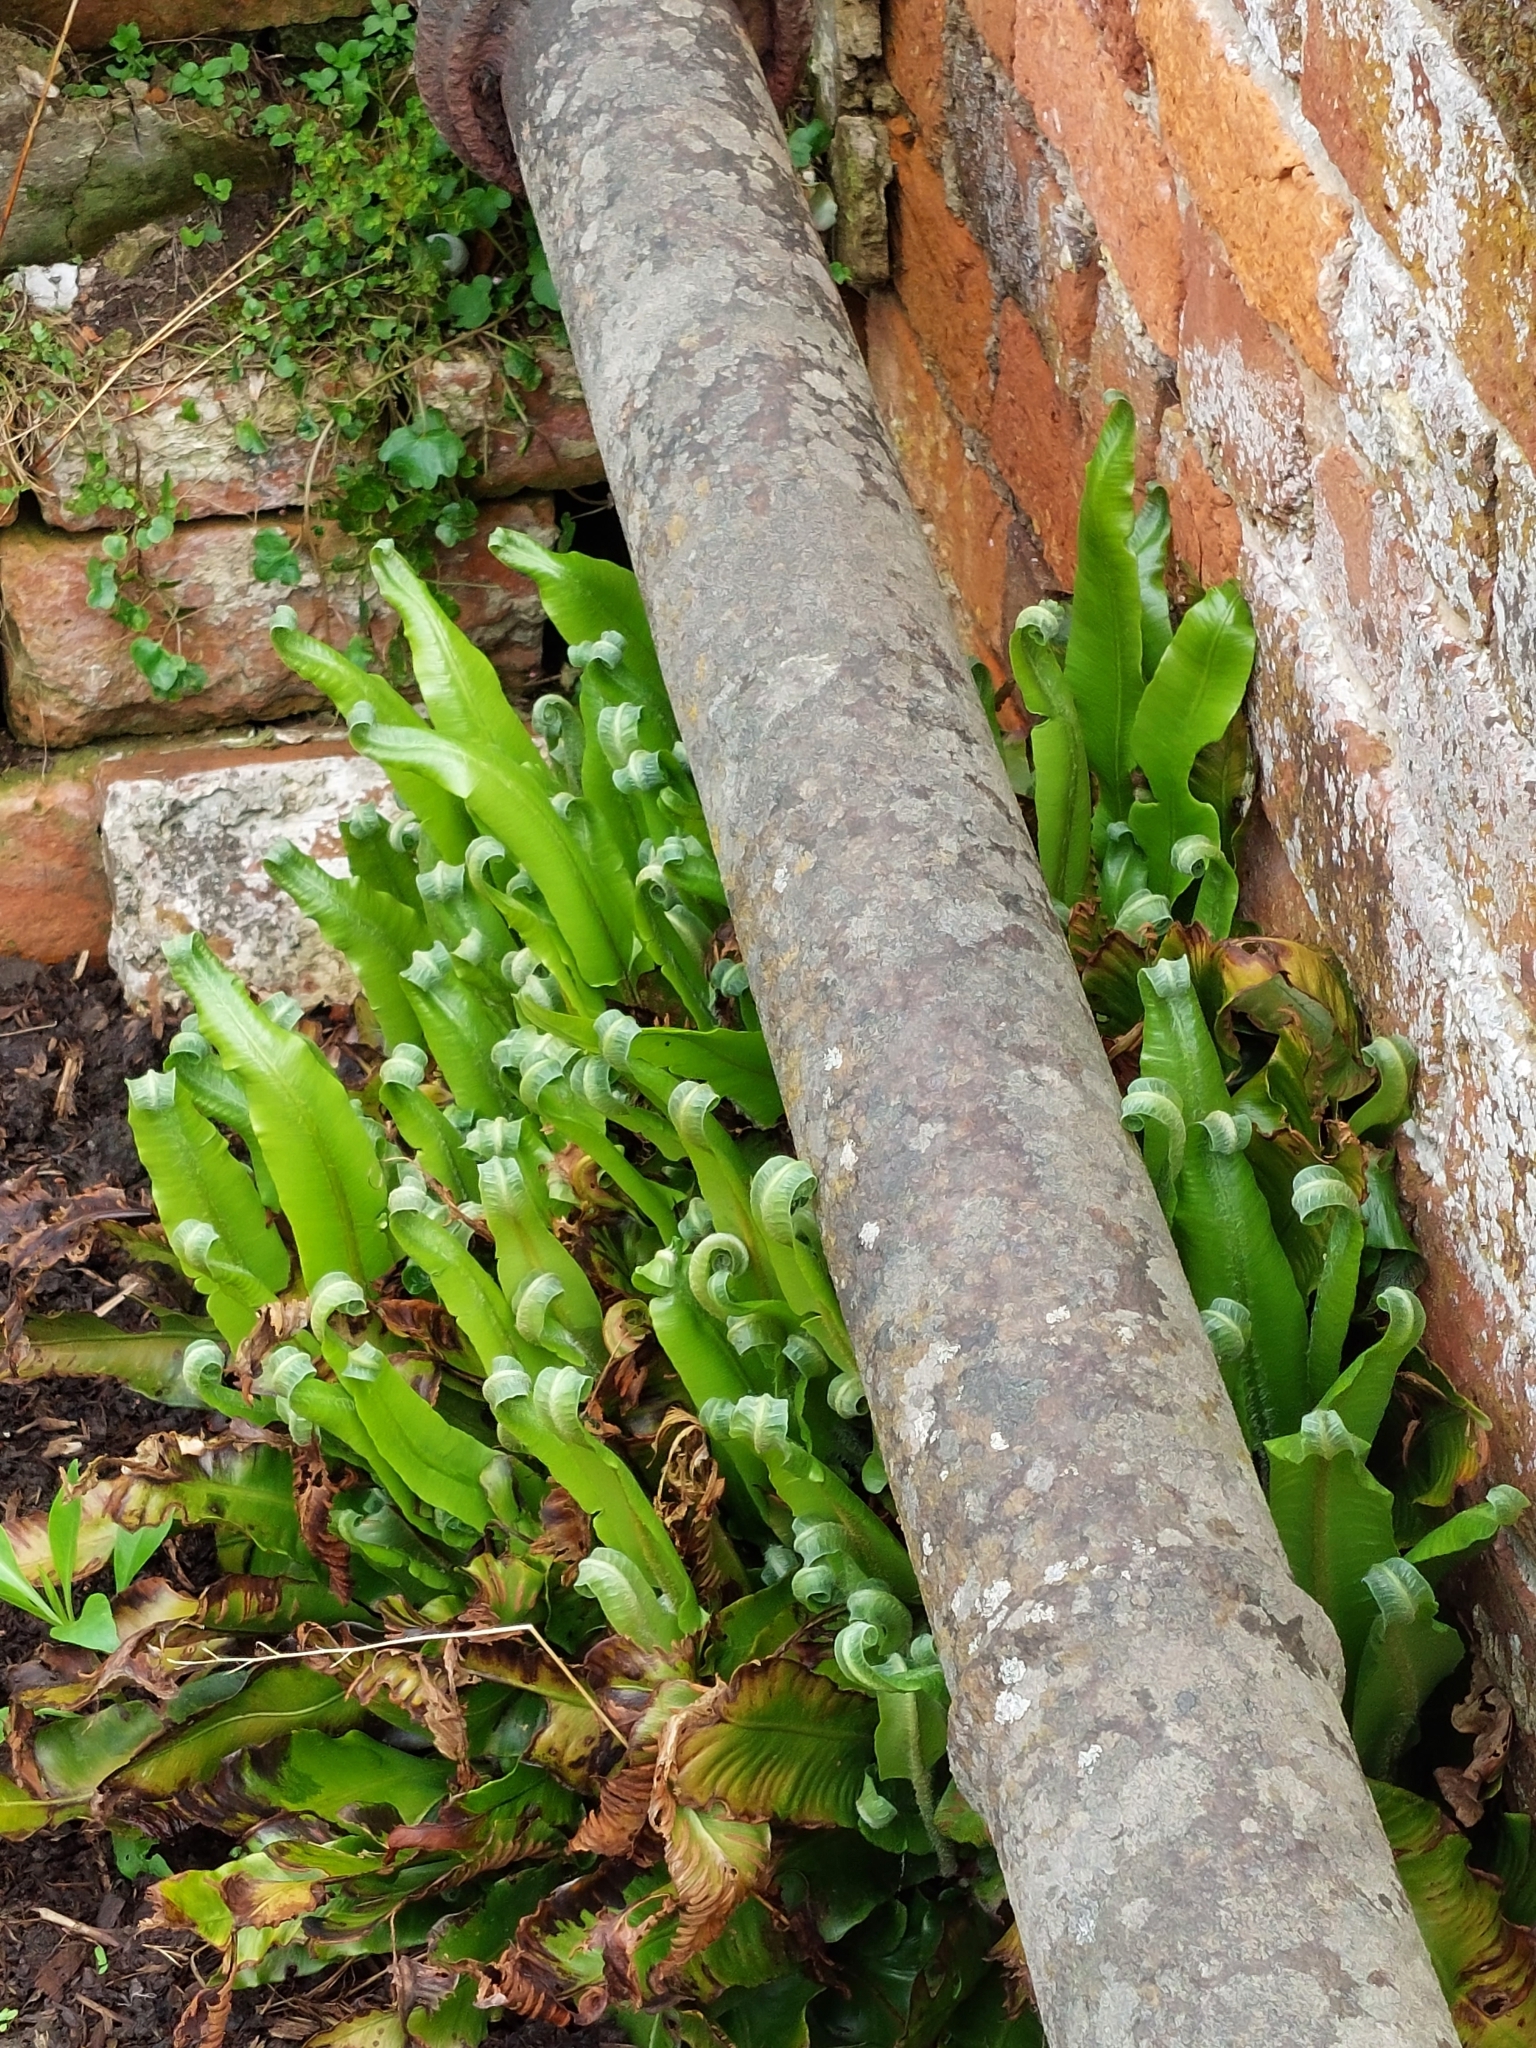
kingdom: Plantae
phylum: Tracheophyta
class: Polypodiopsida
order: Polypodiales
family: Aspleniaceae
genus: Asplenium
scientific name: Asplenium scolopendrium
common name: Hart's-tongue fern
